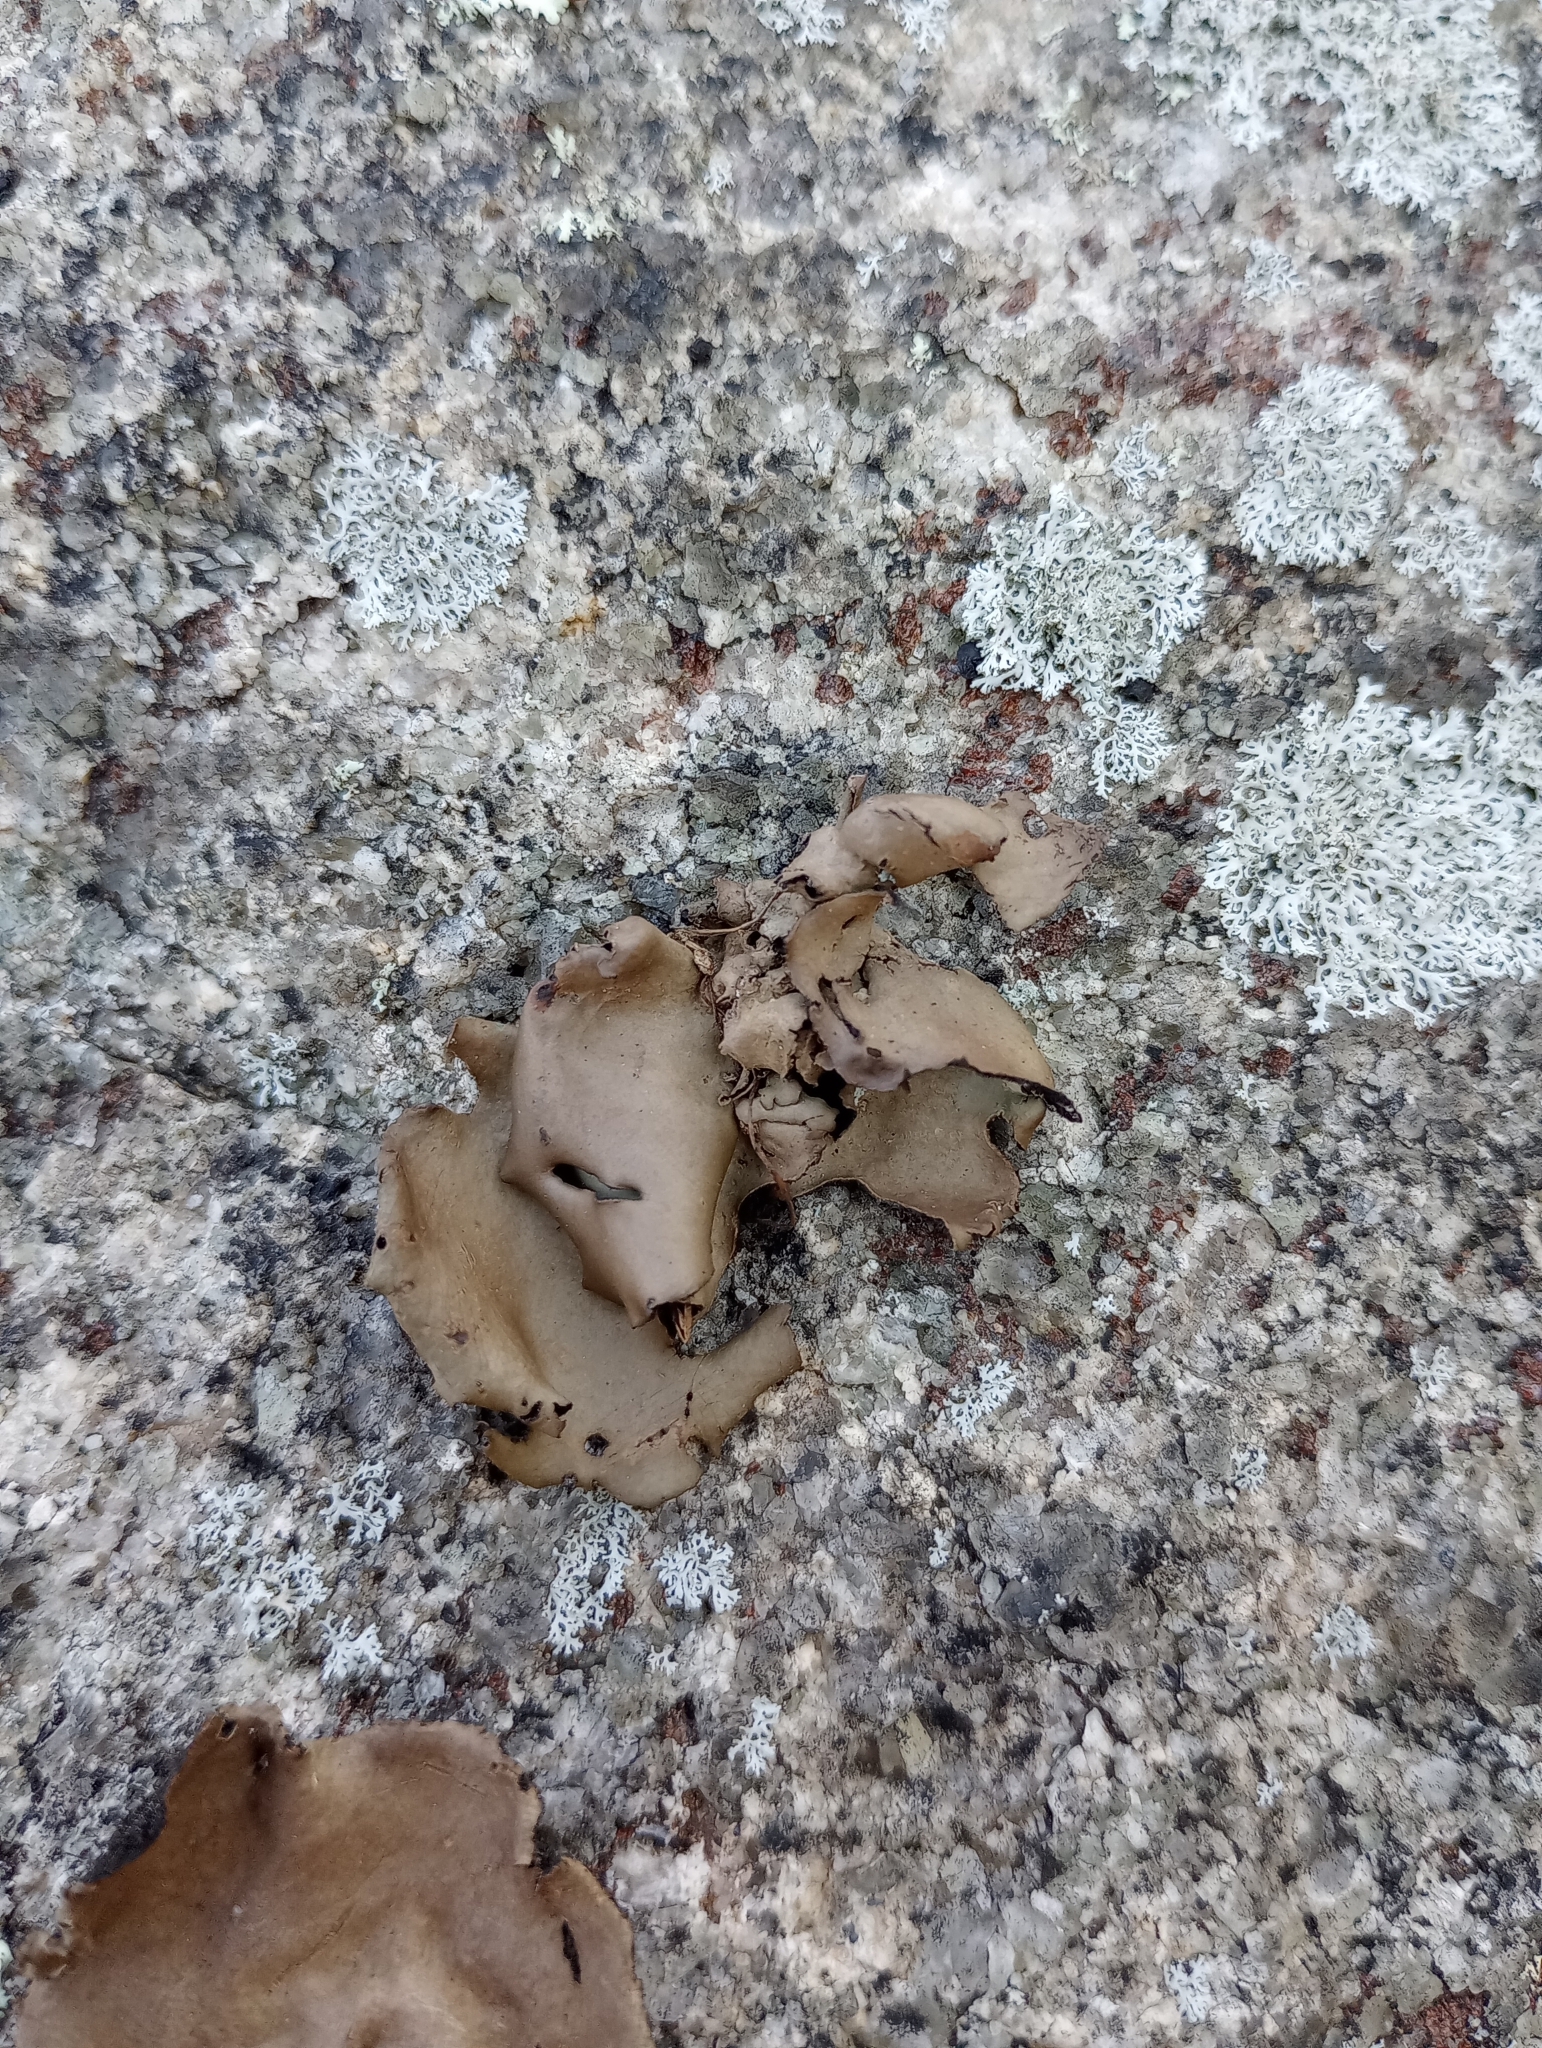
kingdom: Fungi
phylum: Ascomycota
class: Lecanoromycetes
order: Umbilicariales
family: Umbilicariaceae
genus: Umbilicaria
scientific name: Umbilicaria mammulata
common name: Smooth rock tripe
